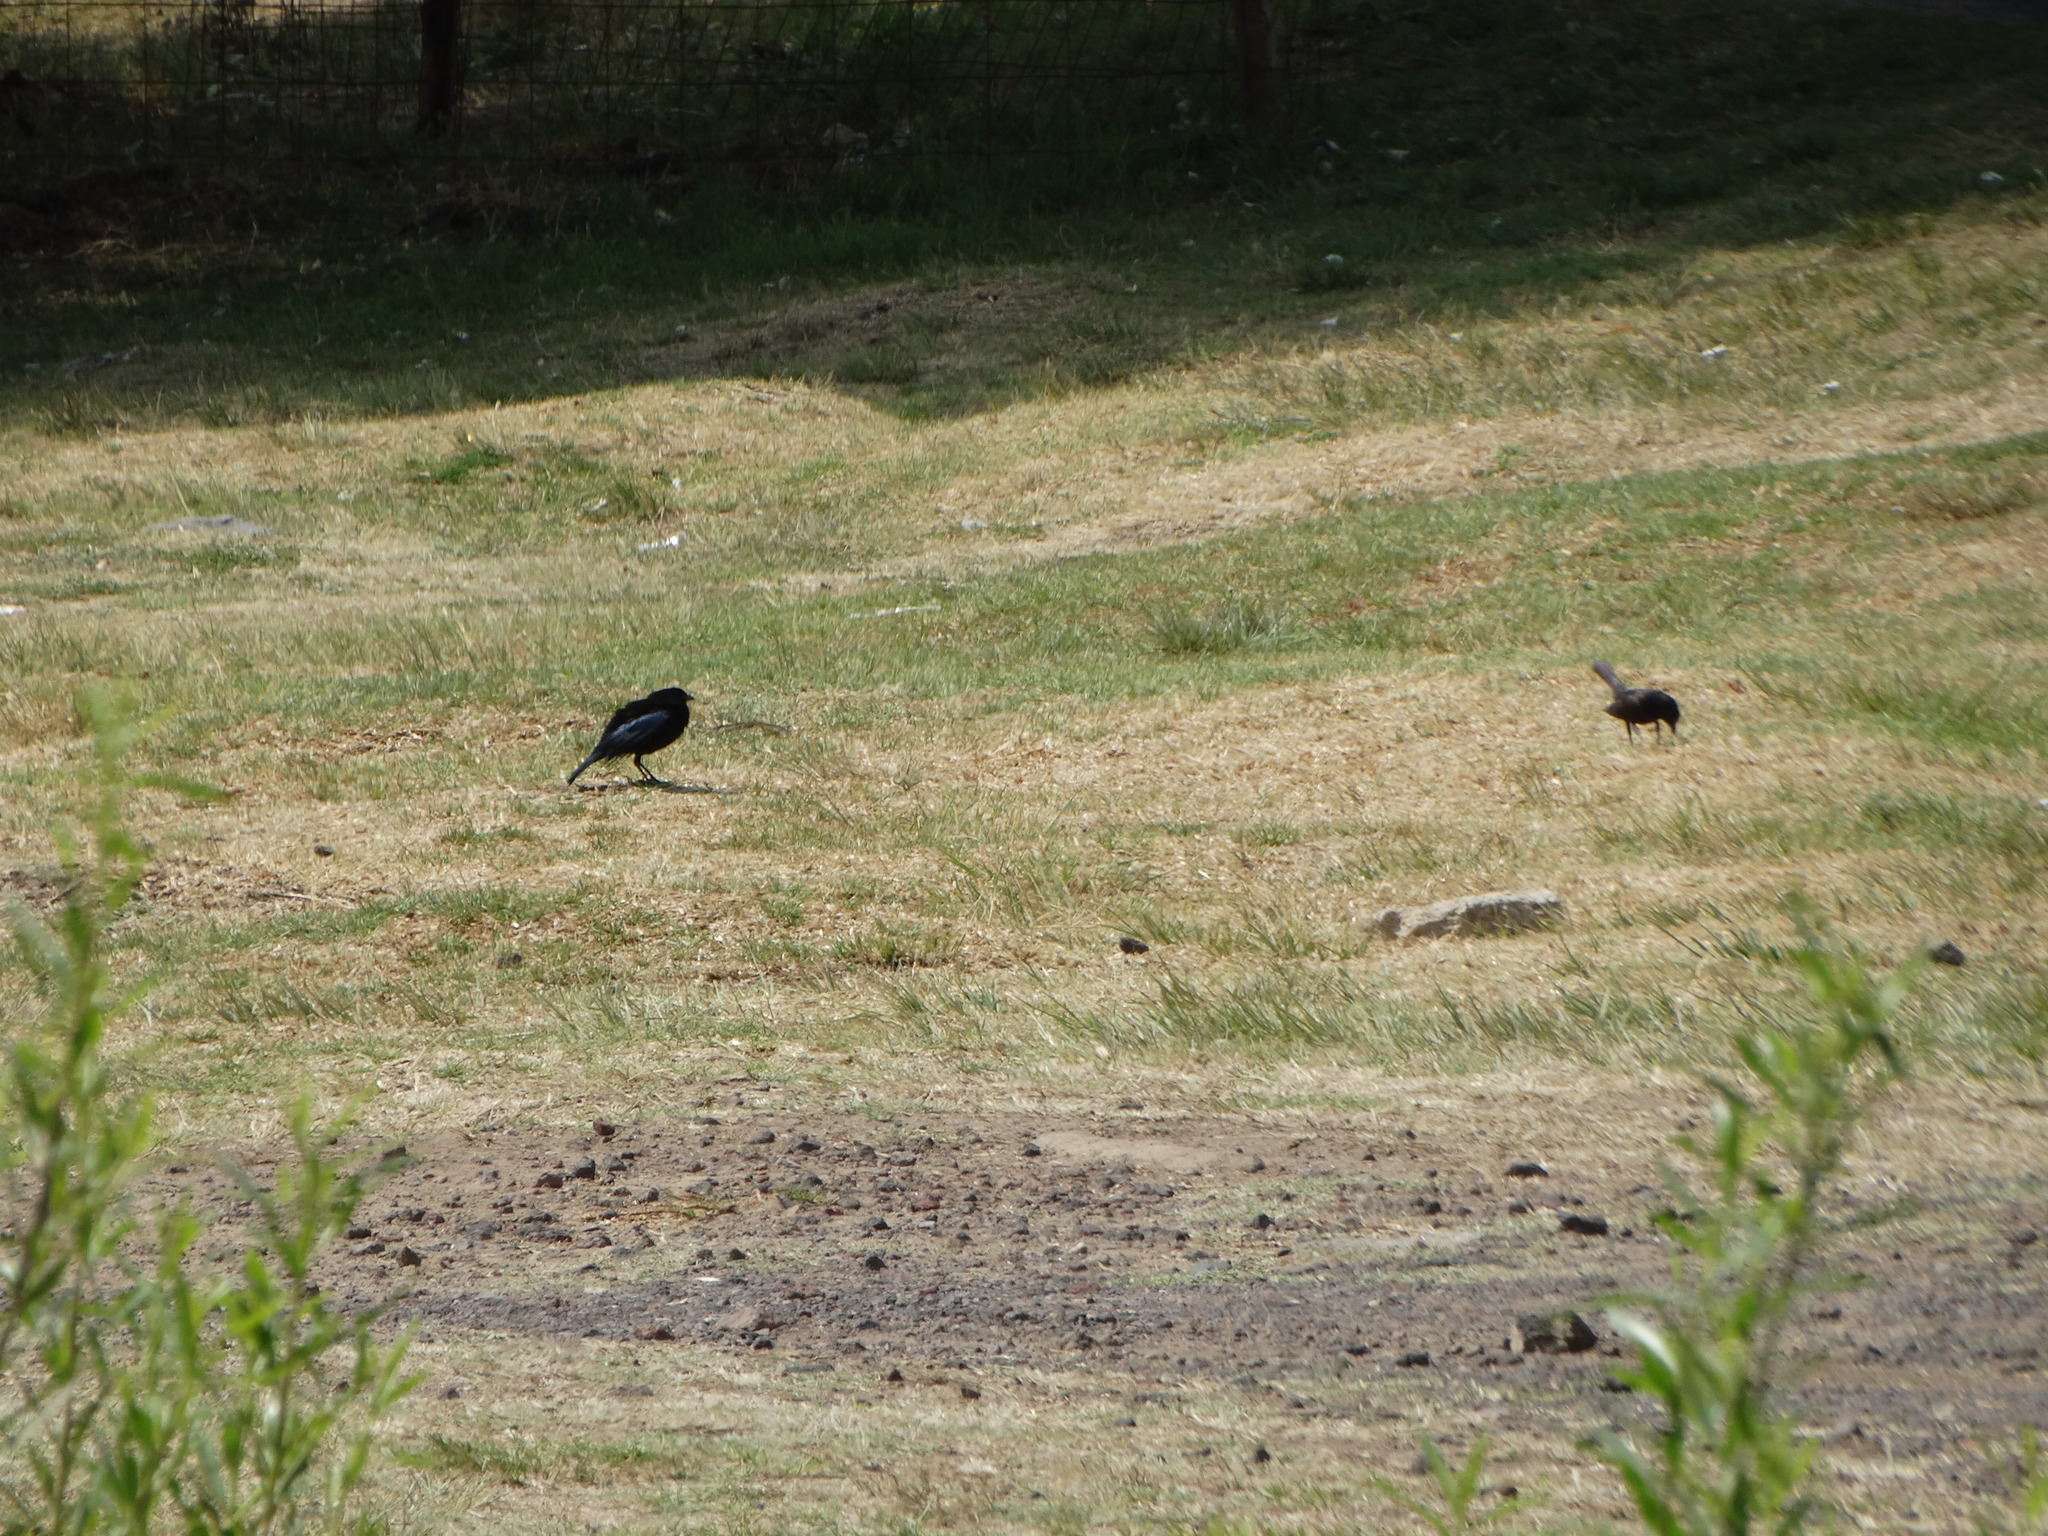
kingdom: Animalia
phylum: Chordata
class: Aves
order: Passeriformes
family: Icteridae
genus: Molothrus
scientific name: Molothrus aeneus
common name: Bronzed cowbird
